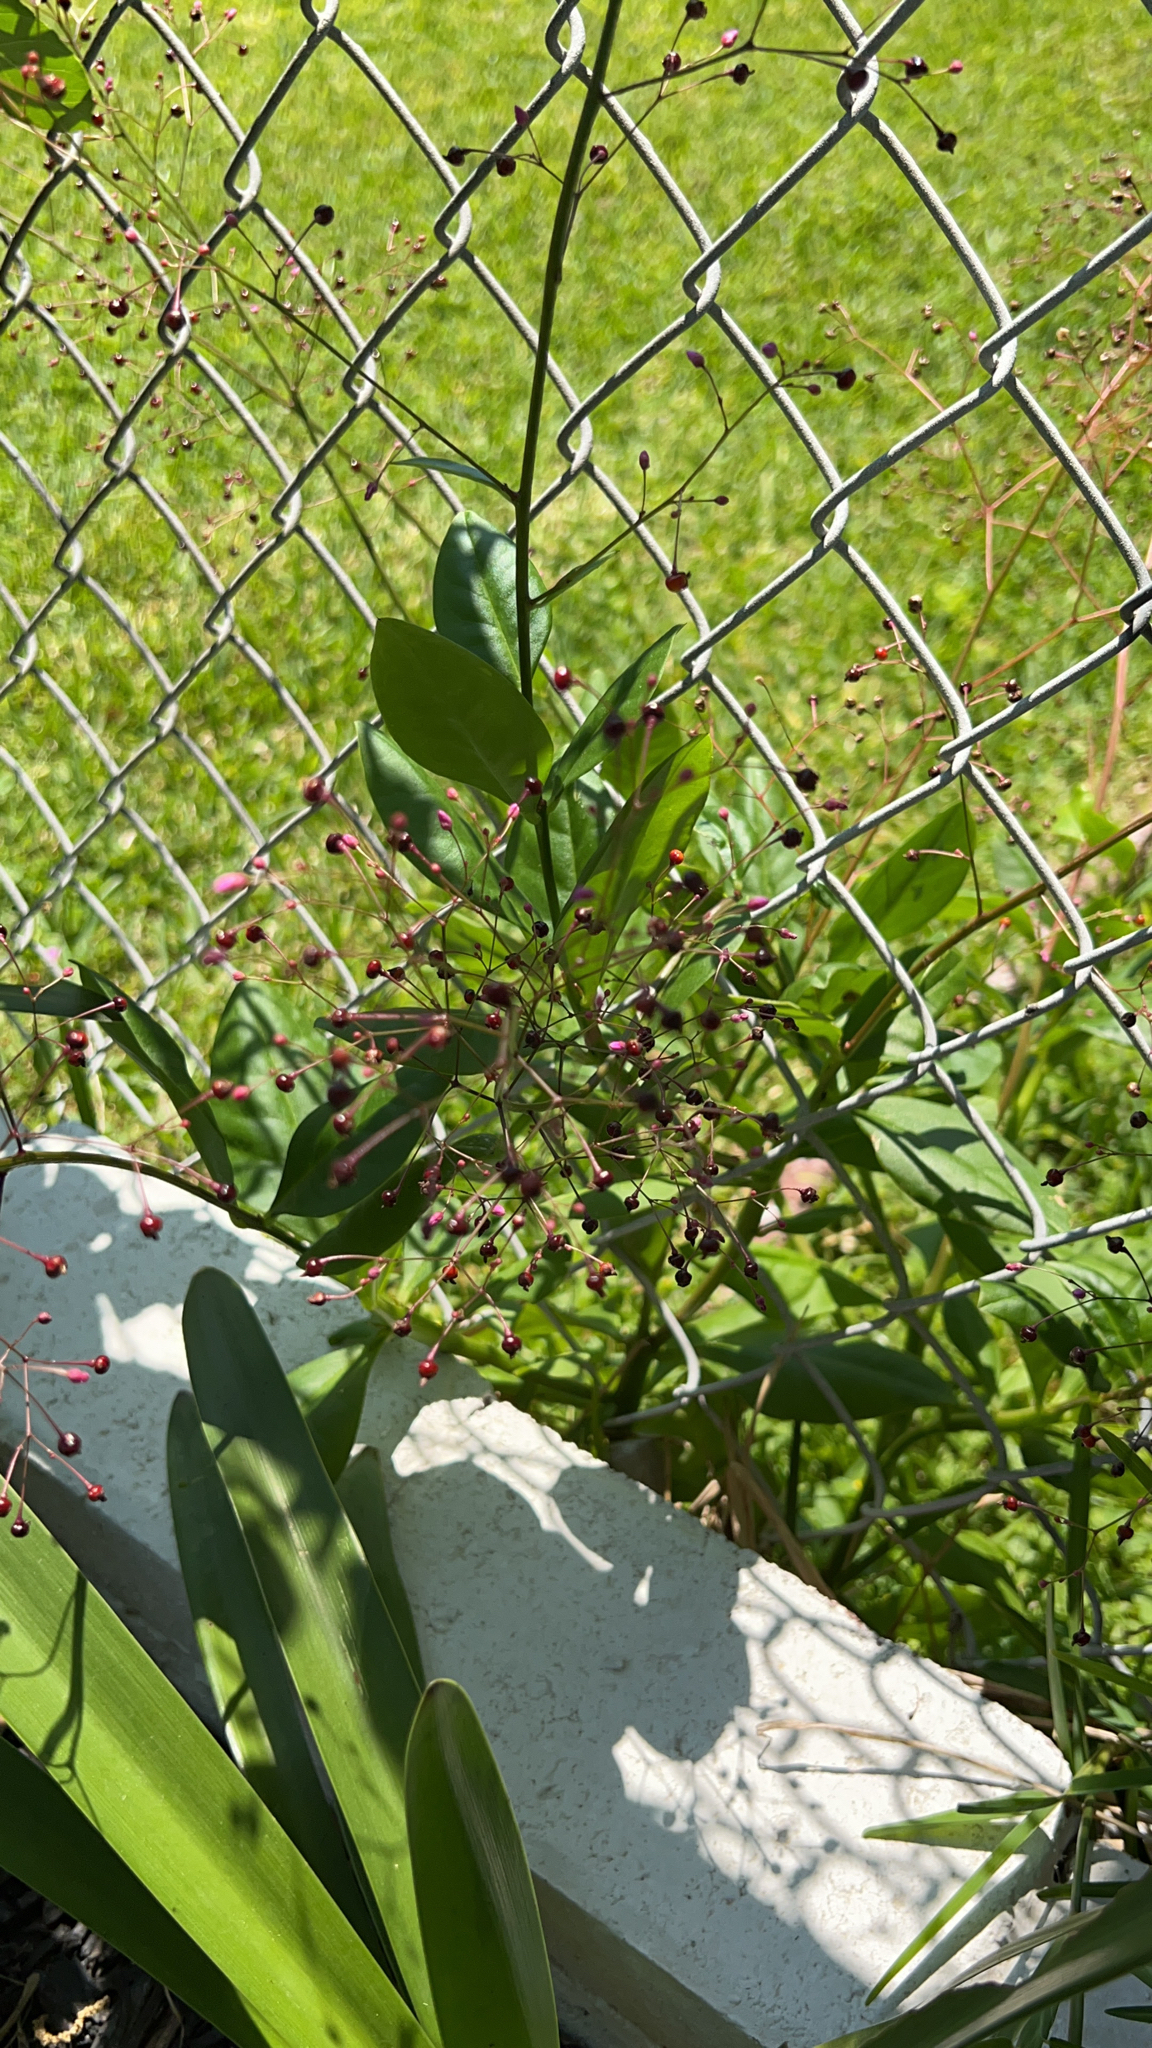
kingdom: Plantae
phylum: Tracheophyta
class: Magnoliopsida
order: Caryophyllales
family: Talinaceae
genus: Talinum
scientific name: Talinum paniculatum
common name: Jewels of opar
